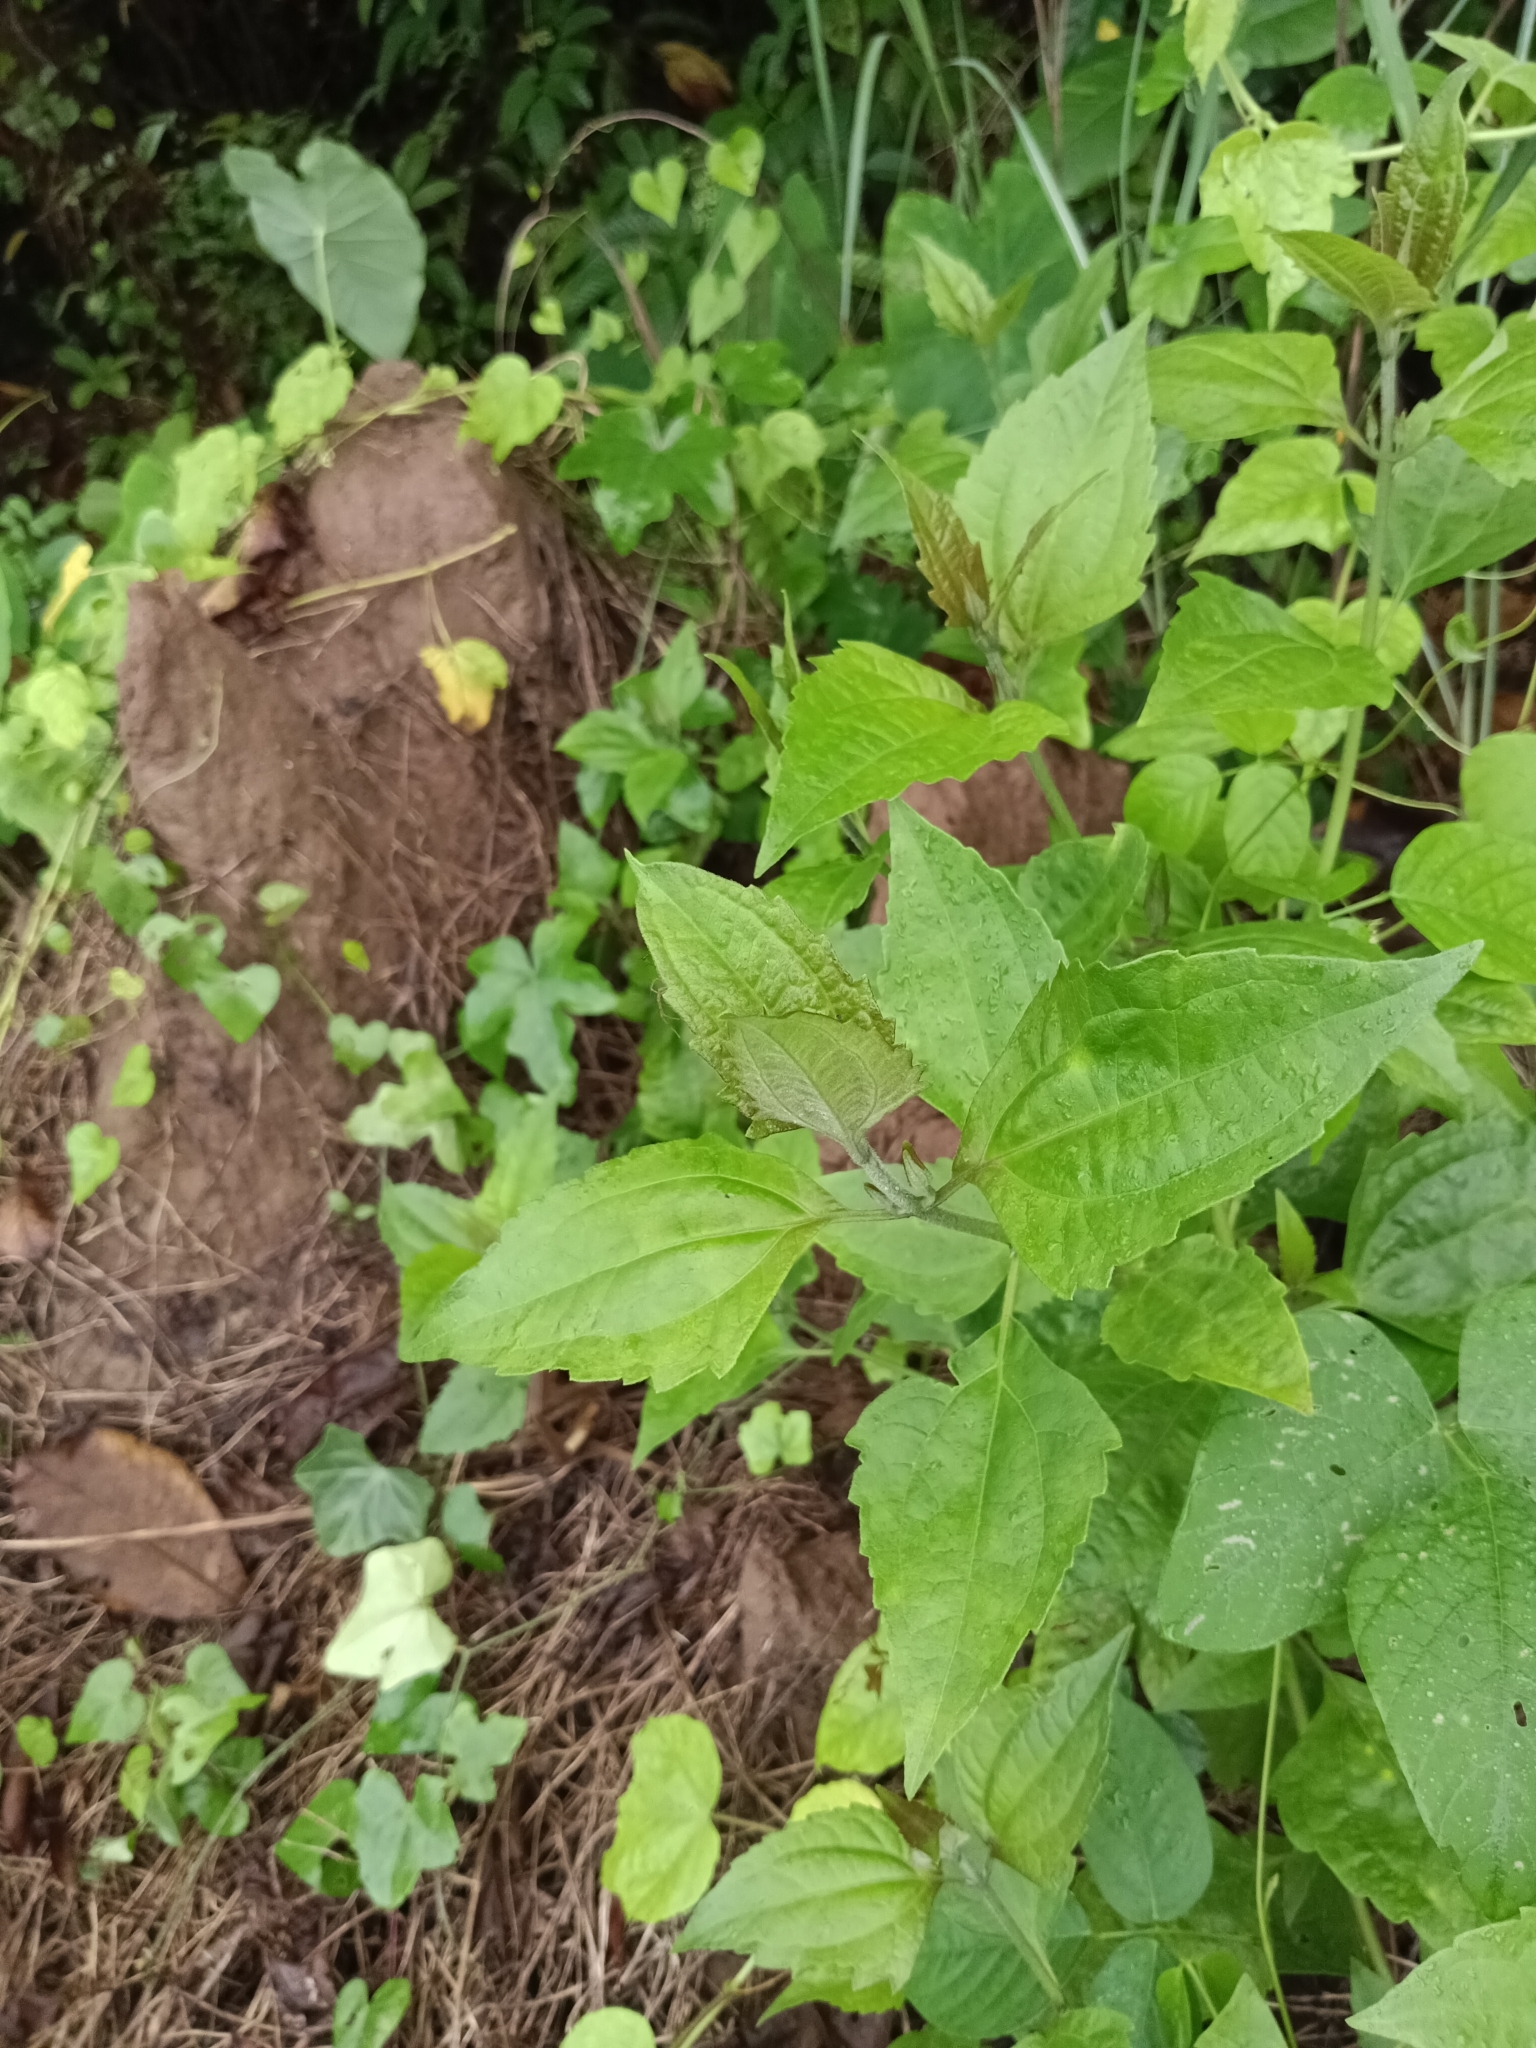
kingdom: Plantae
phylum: Tracheophyta
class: Magnoliopsida
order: Asterales
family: Asteraceae
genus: Chromolaena
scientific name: Chromolaena odorata
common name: Siamweed
